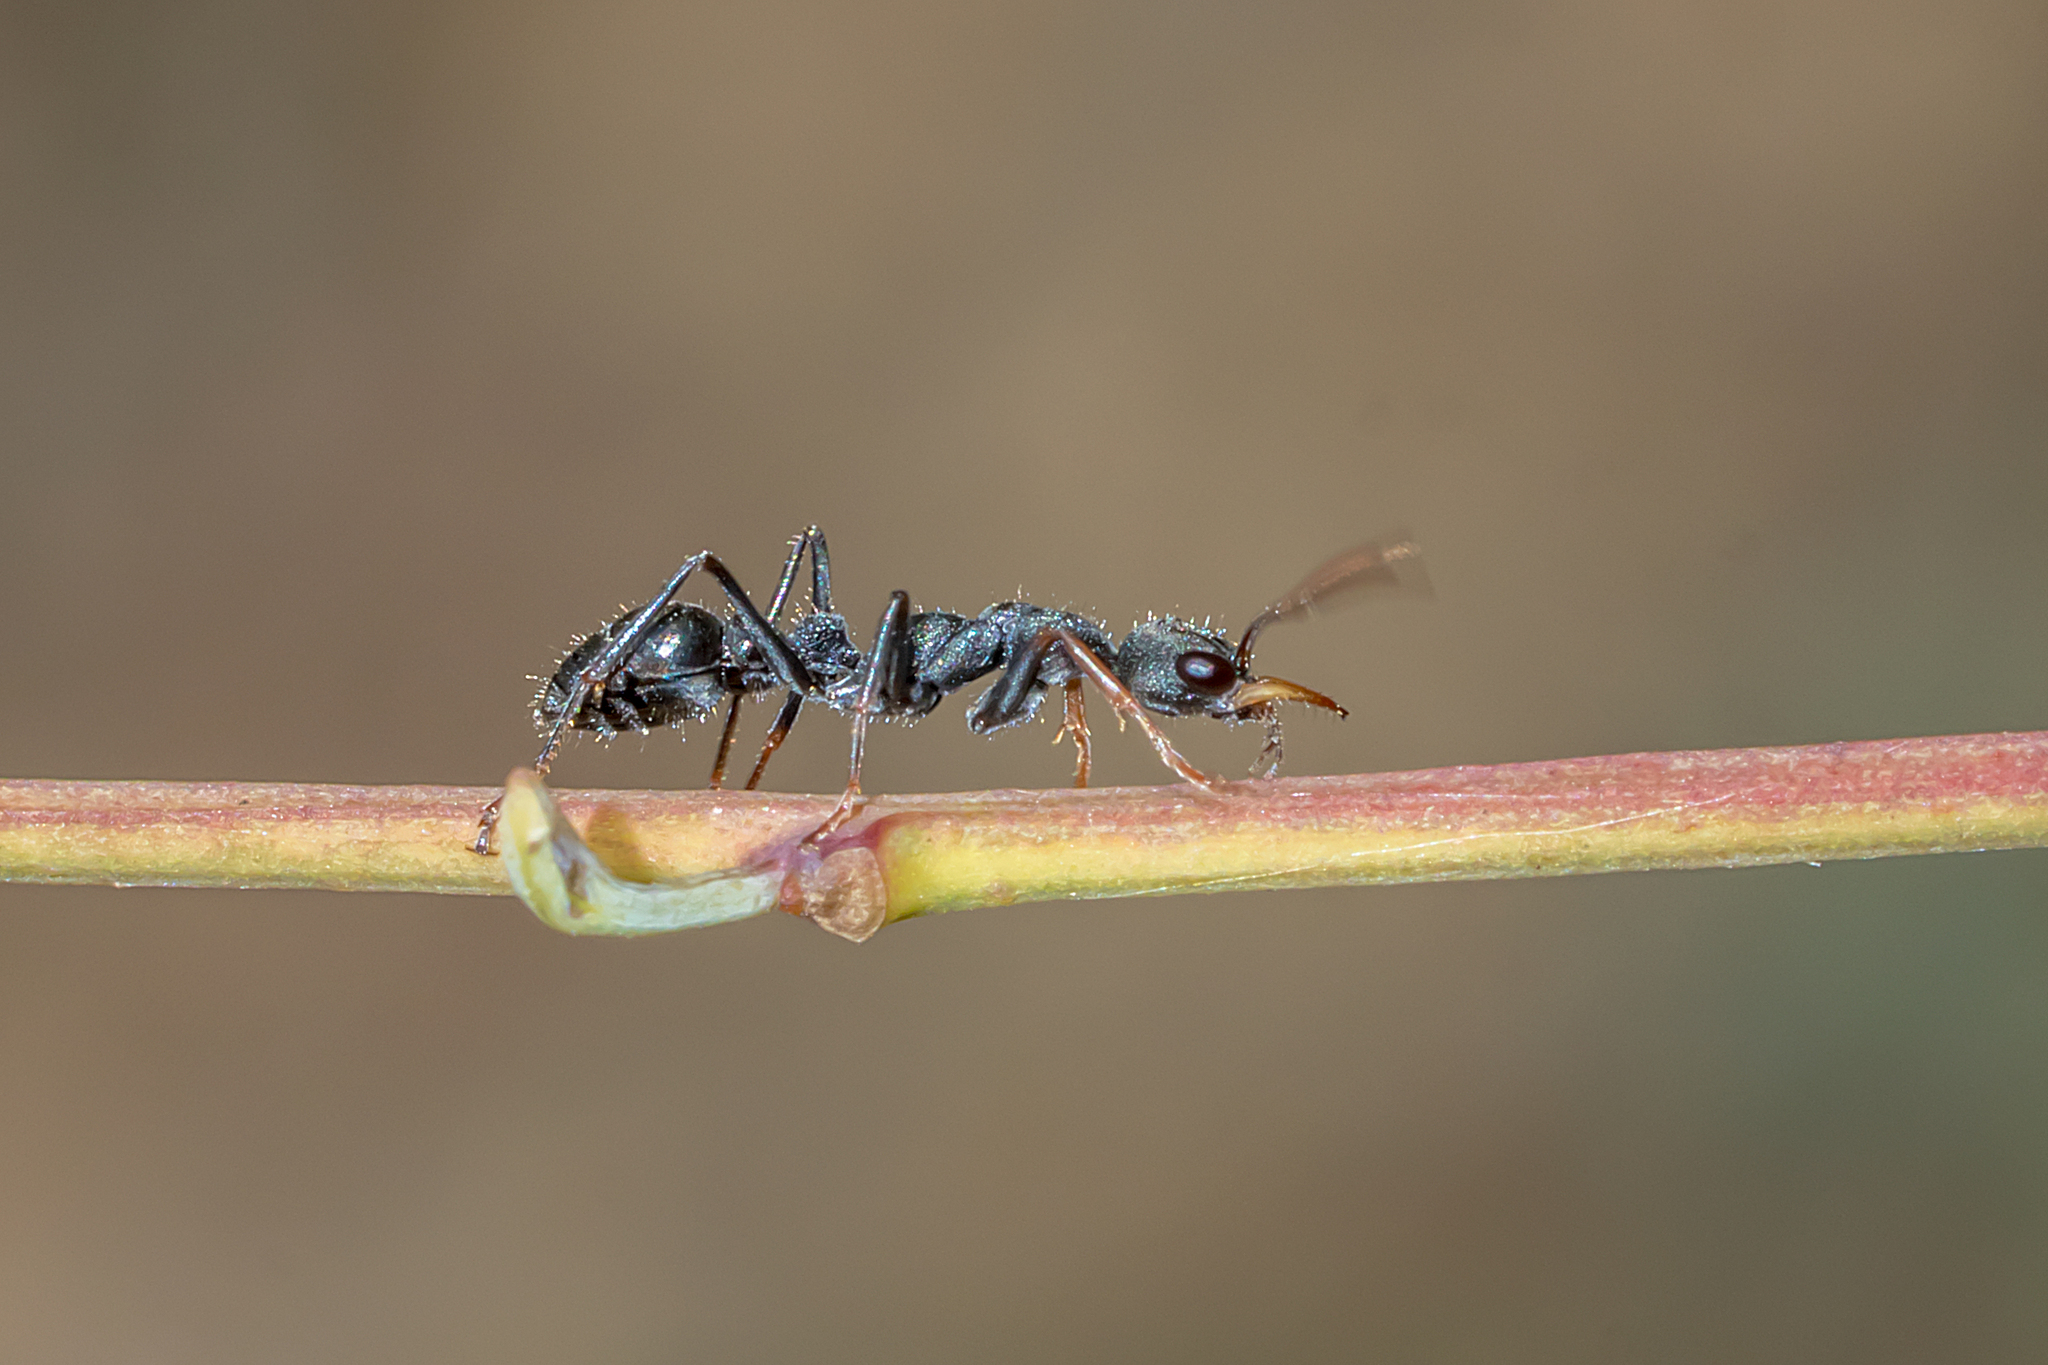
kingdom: Animalia
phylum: Arthropoda
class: Insecta
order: Hymenoptera
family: Formicidae
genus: Myrmecia
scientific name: Myrmecia urens
